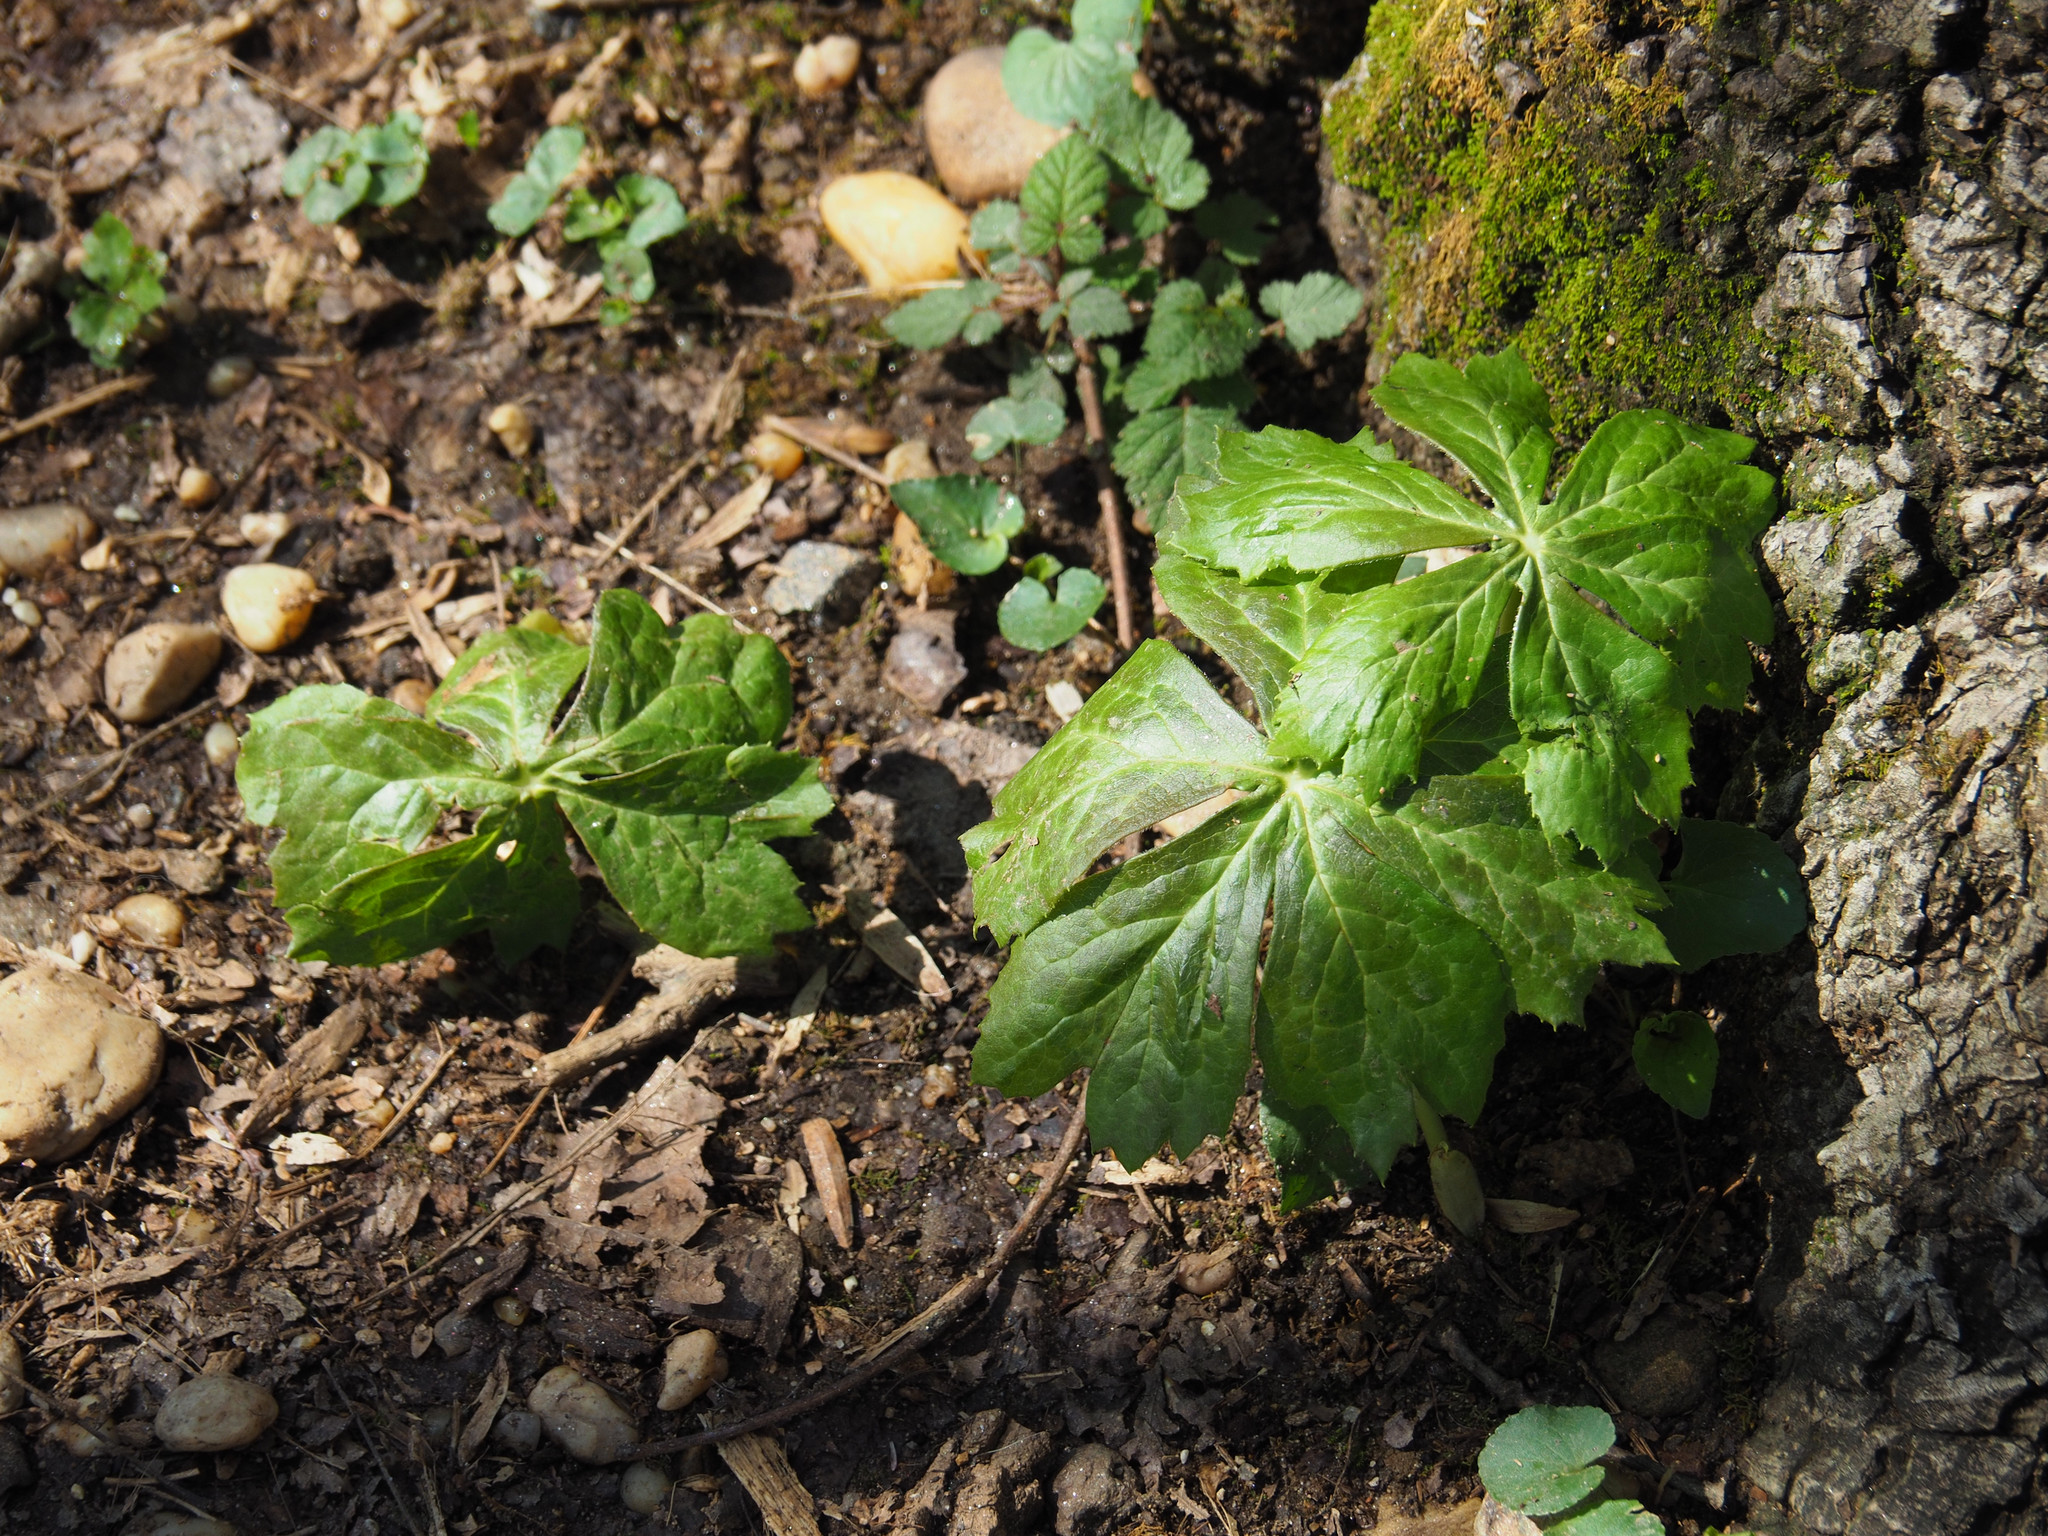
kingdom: Plantae
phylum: Tracheophyta
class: Magnoliopsida
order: Ranunculales
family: Berberidaceae
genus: Podophyllum
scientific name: Podophyllum peltatum
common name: Wild mandrake
